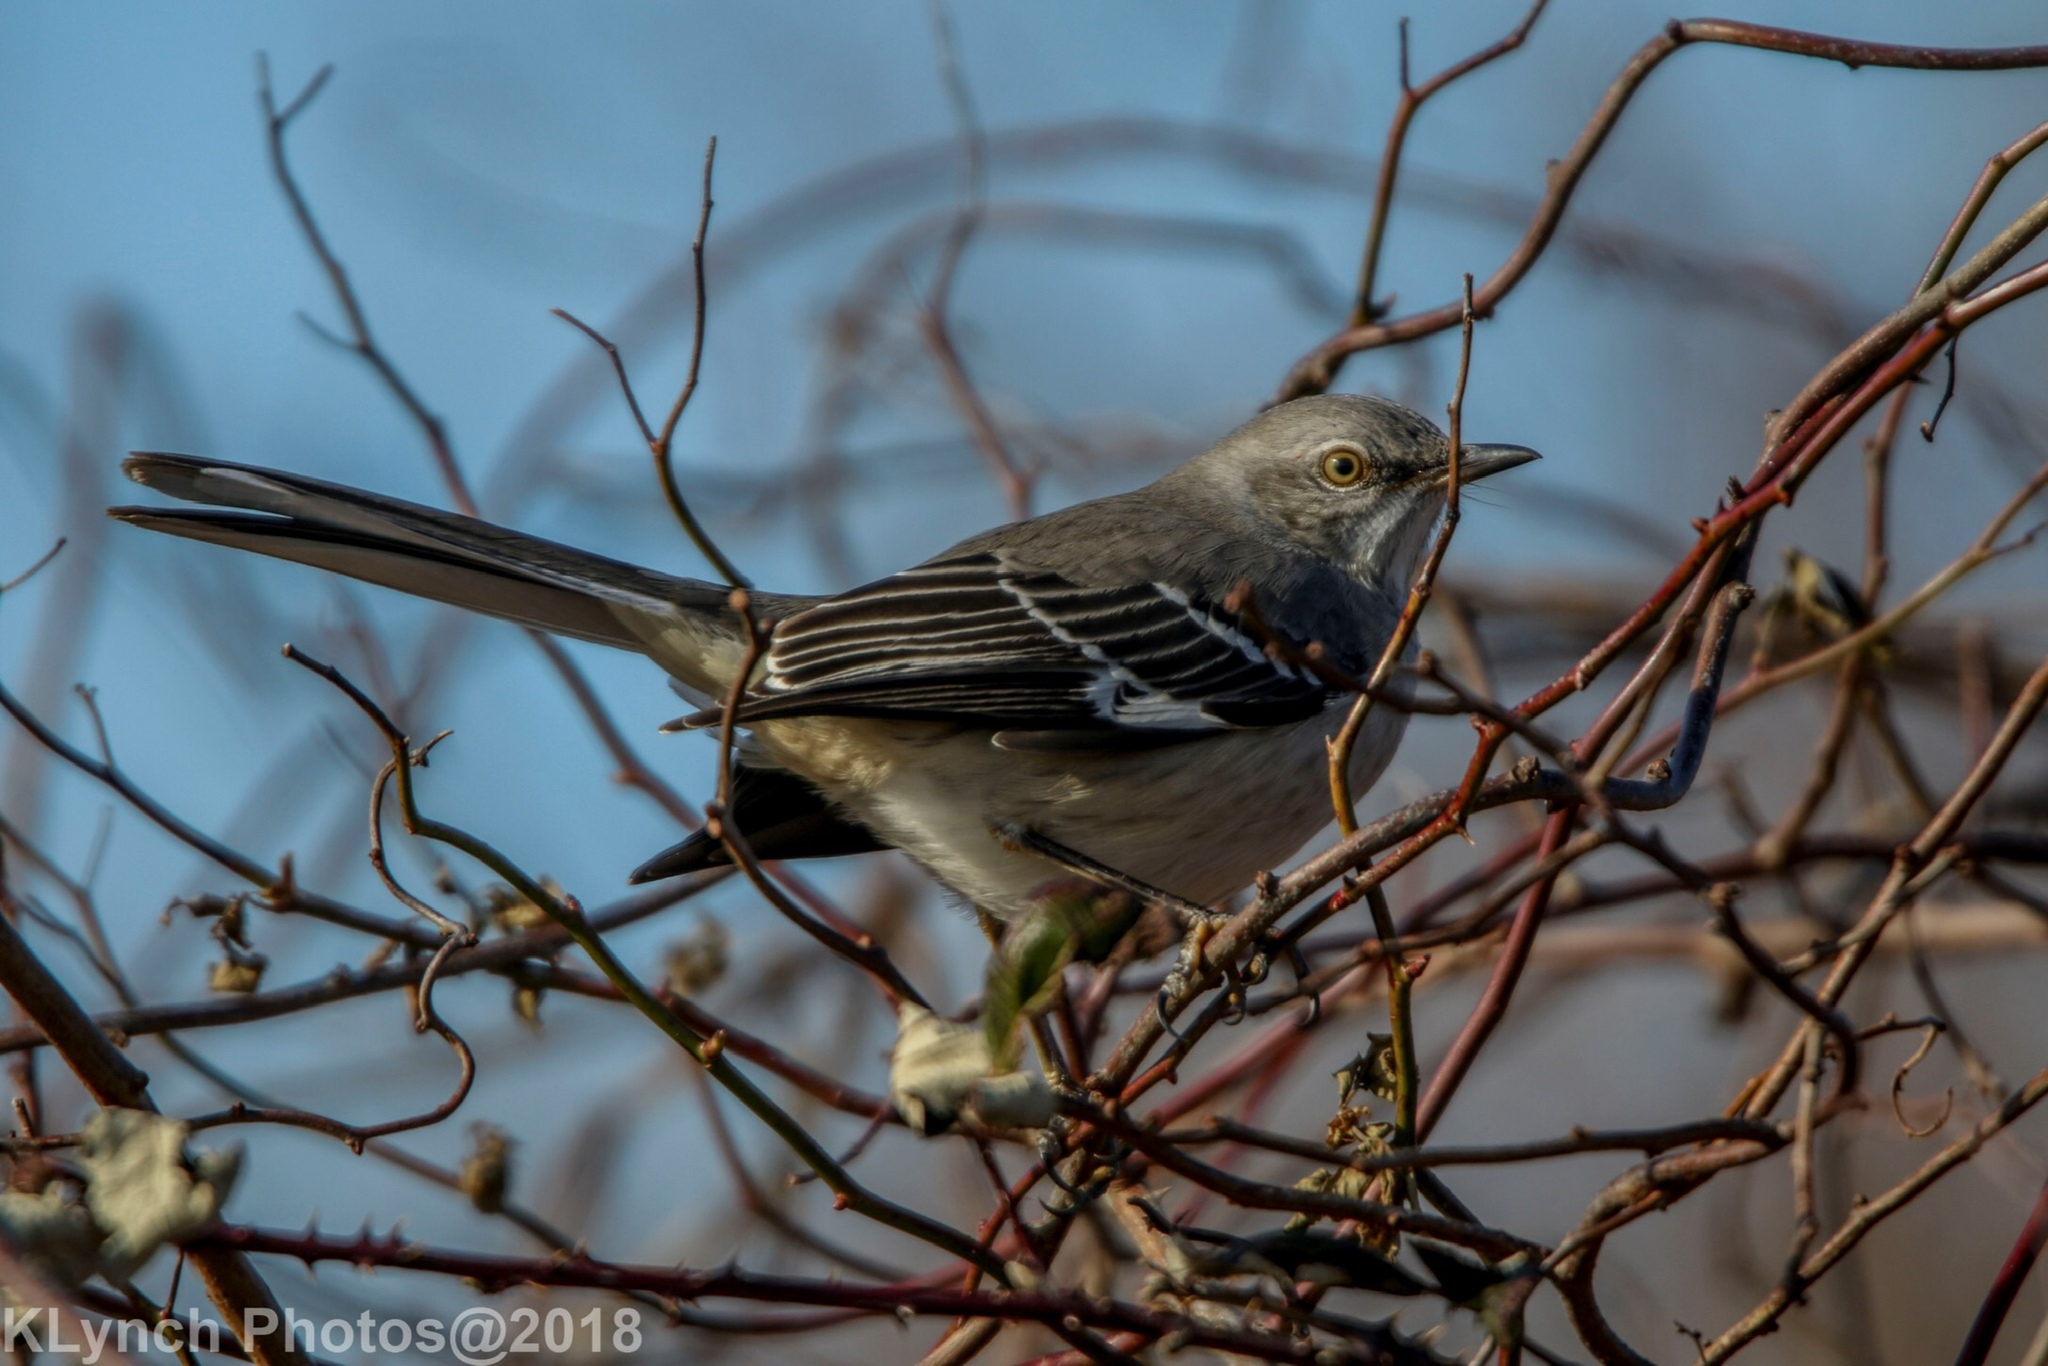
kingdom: Animalia
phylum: Chordata
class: Aves
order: Passeriformes
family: Mimidae
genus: Mimus
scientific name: Mimus polyglottos
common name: Northern mockingbird
